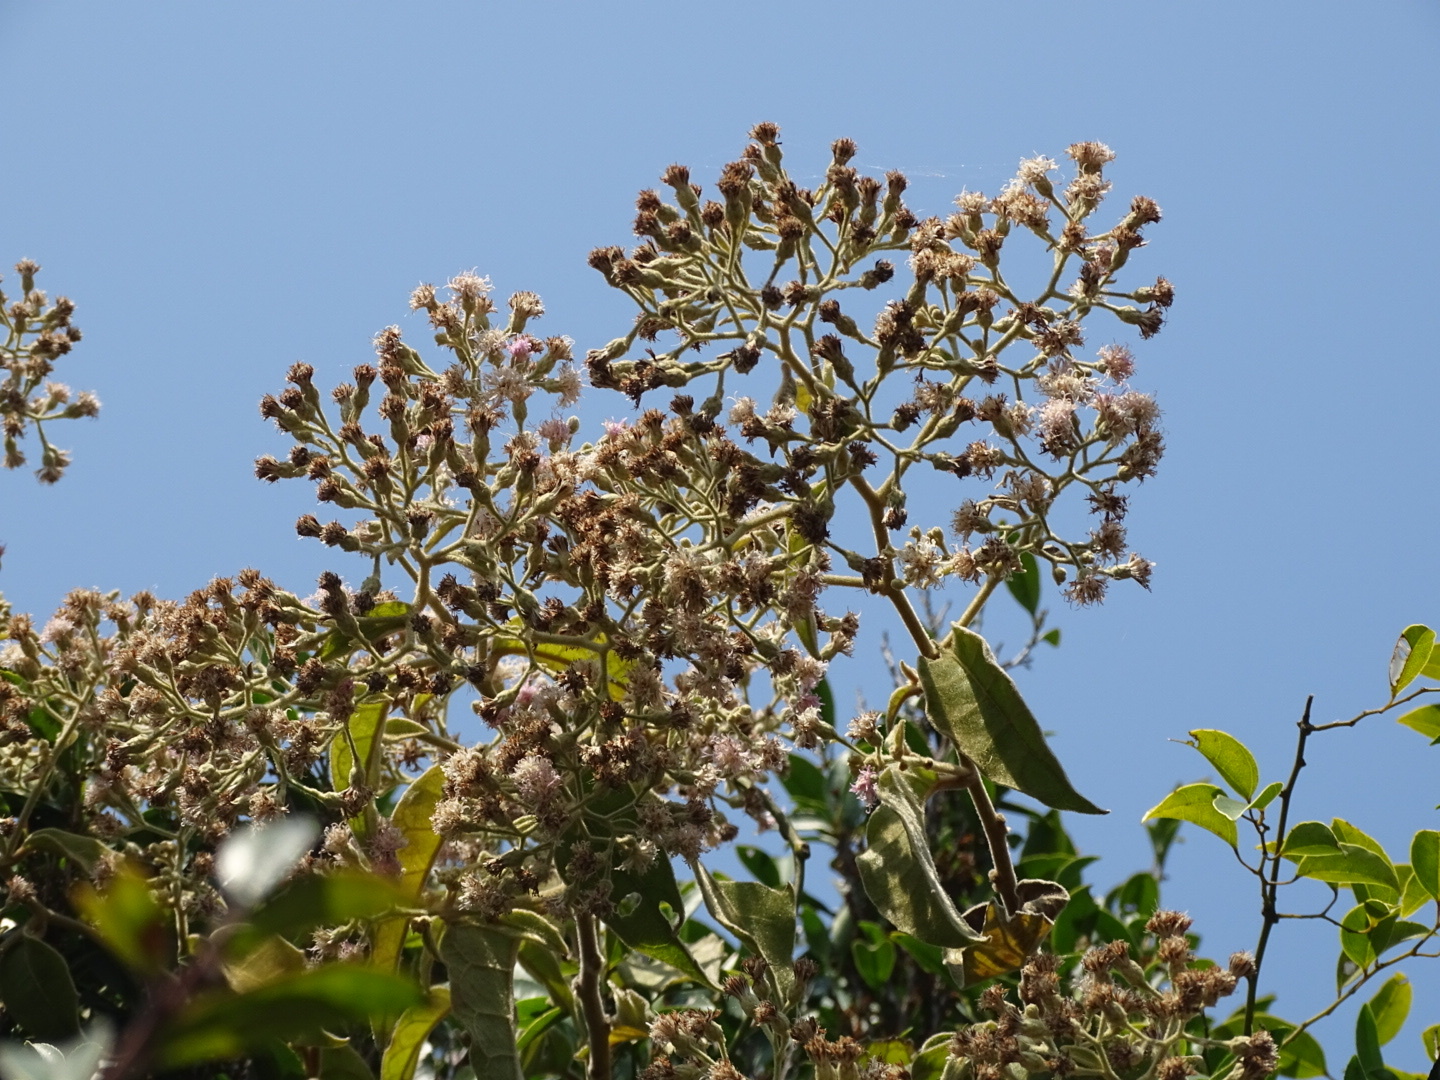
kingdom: Plantae
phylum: Tracheophyta
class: Magnoliopsida
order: Asterales
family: Asteraceae
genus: Pluchea
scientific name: Pluchea indica
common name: Indian fleabane
